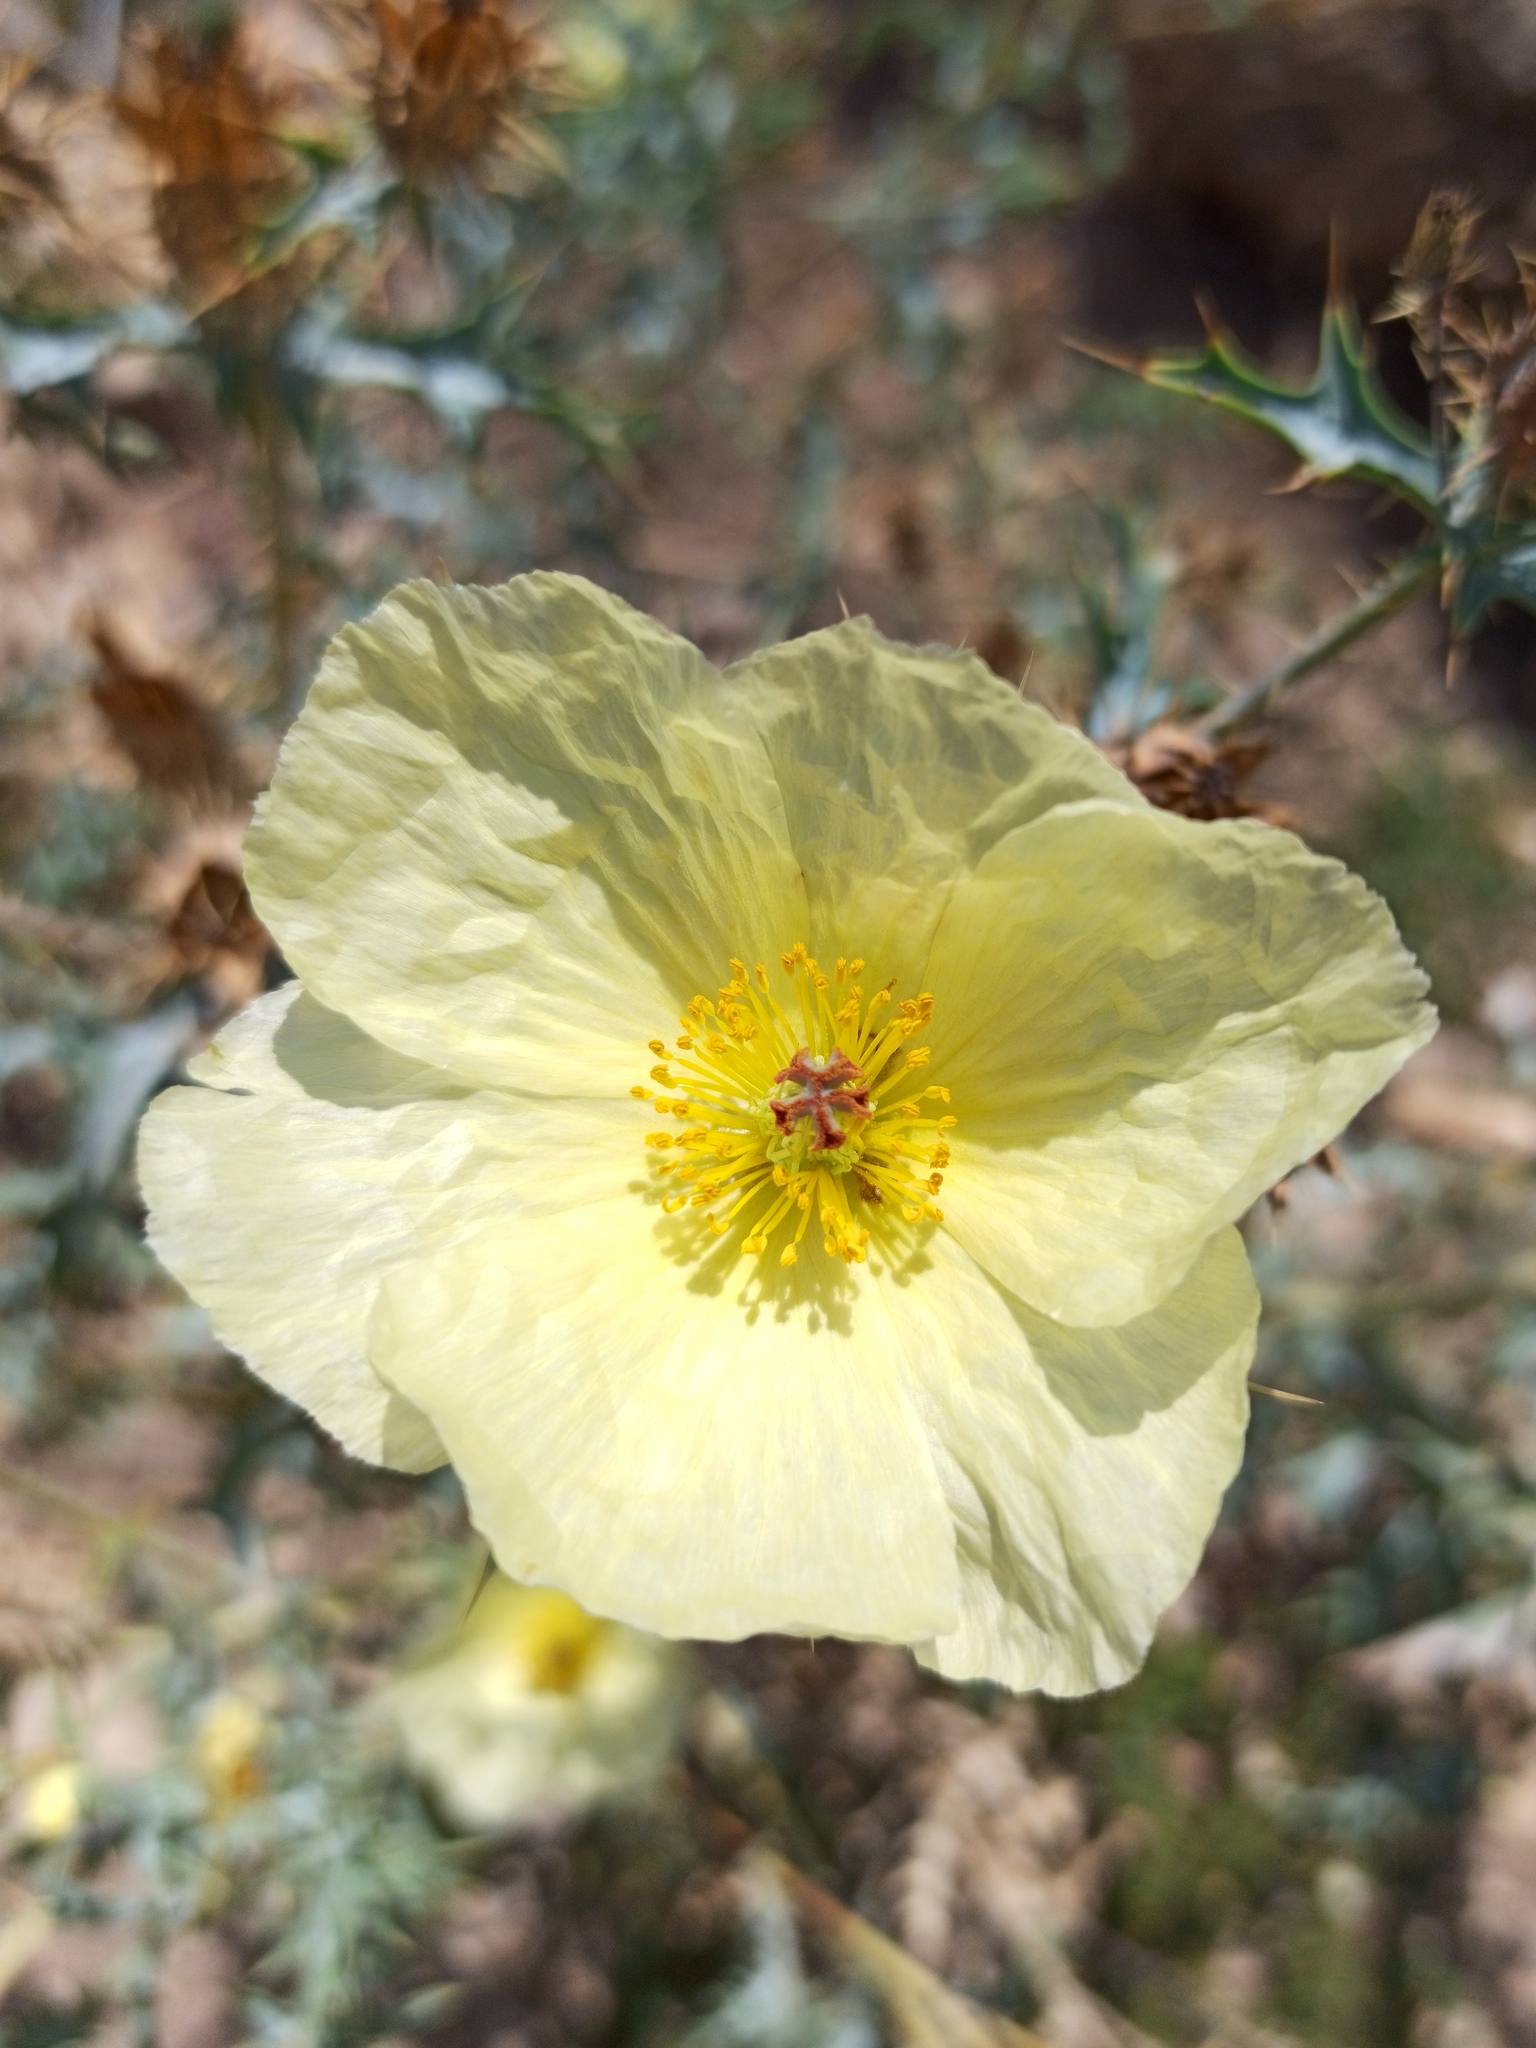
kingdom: Plantae
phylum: Tracheophyta
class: Magnoliopsida
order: Ranunculales
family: Papaveraceae
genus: Argemone
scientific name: Argemone ochroleuca
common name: White-flower mexican-poppy
